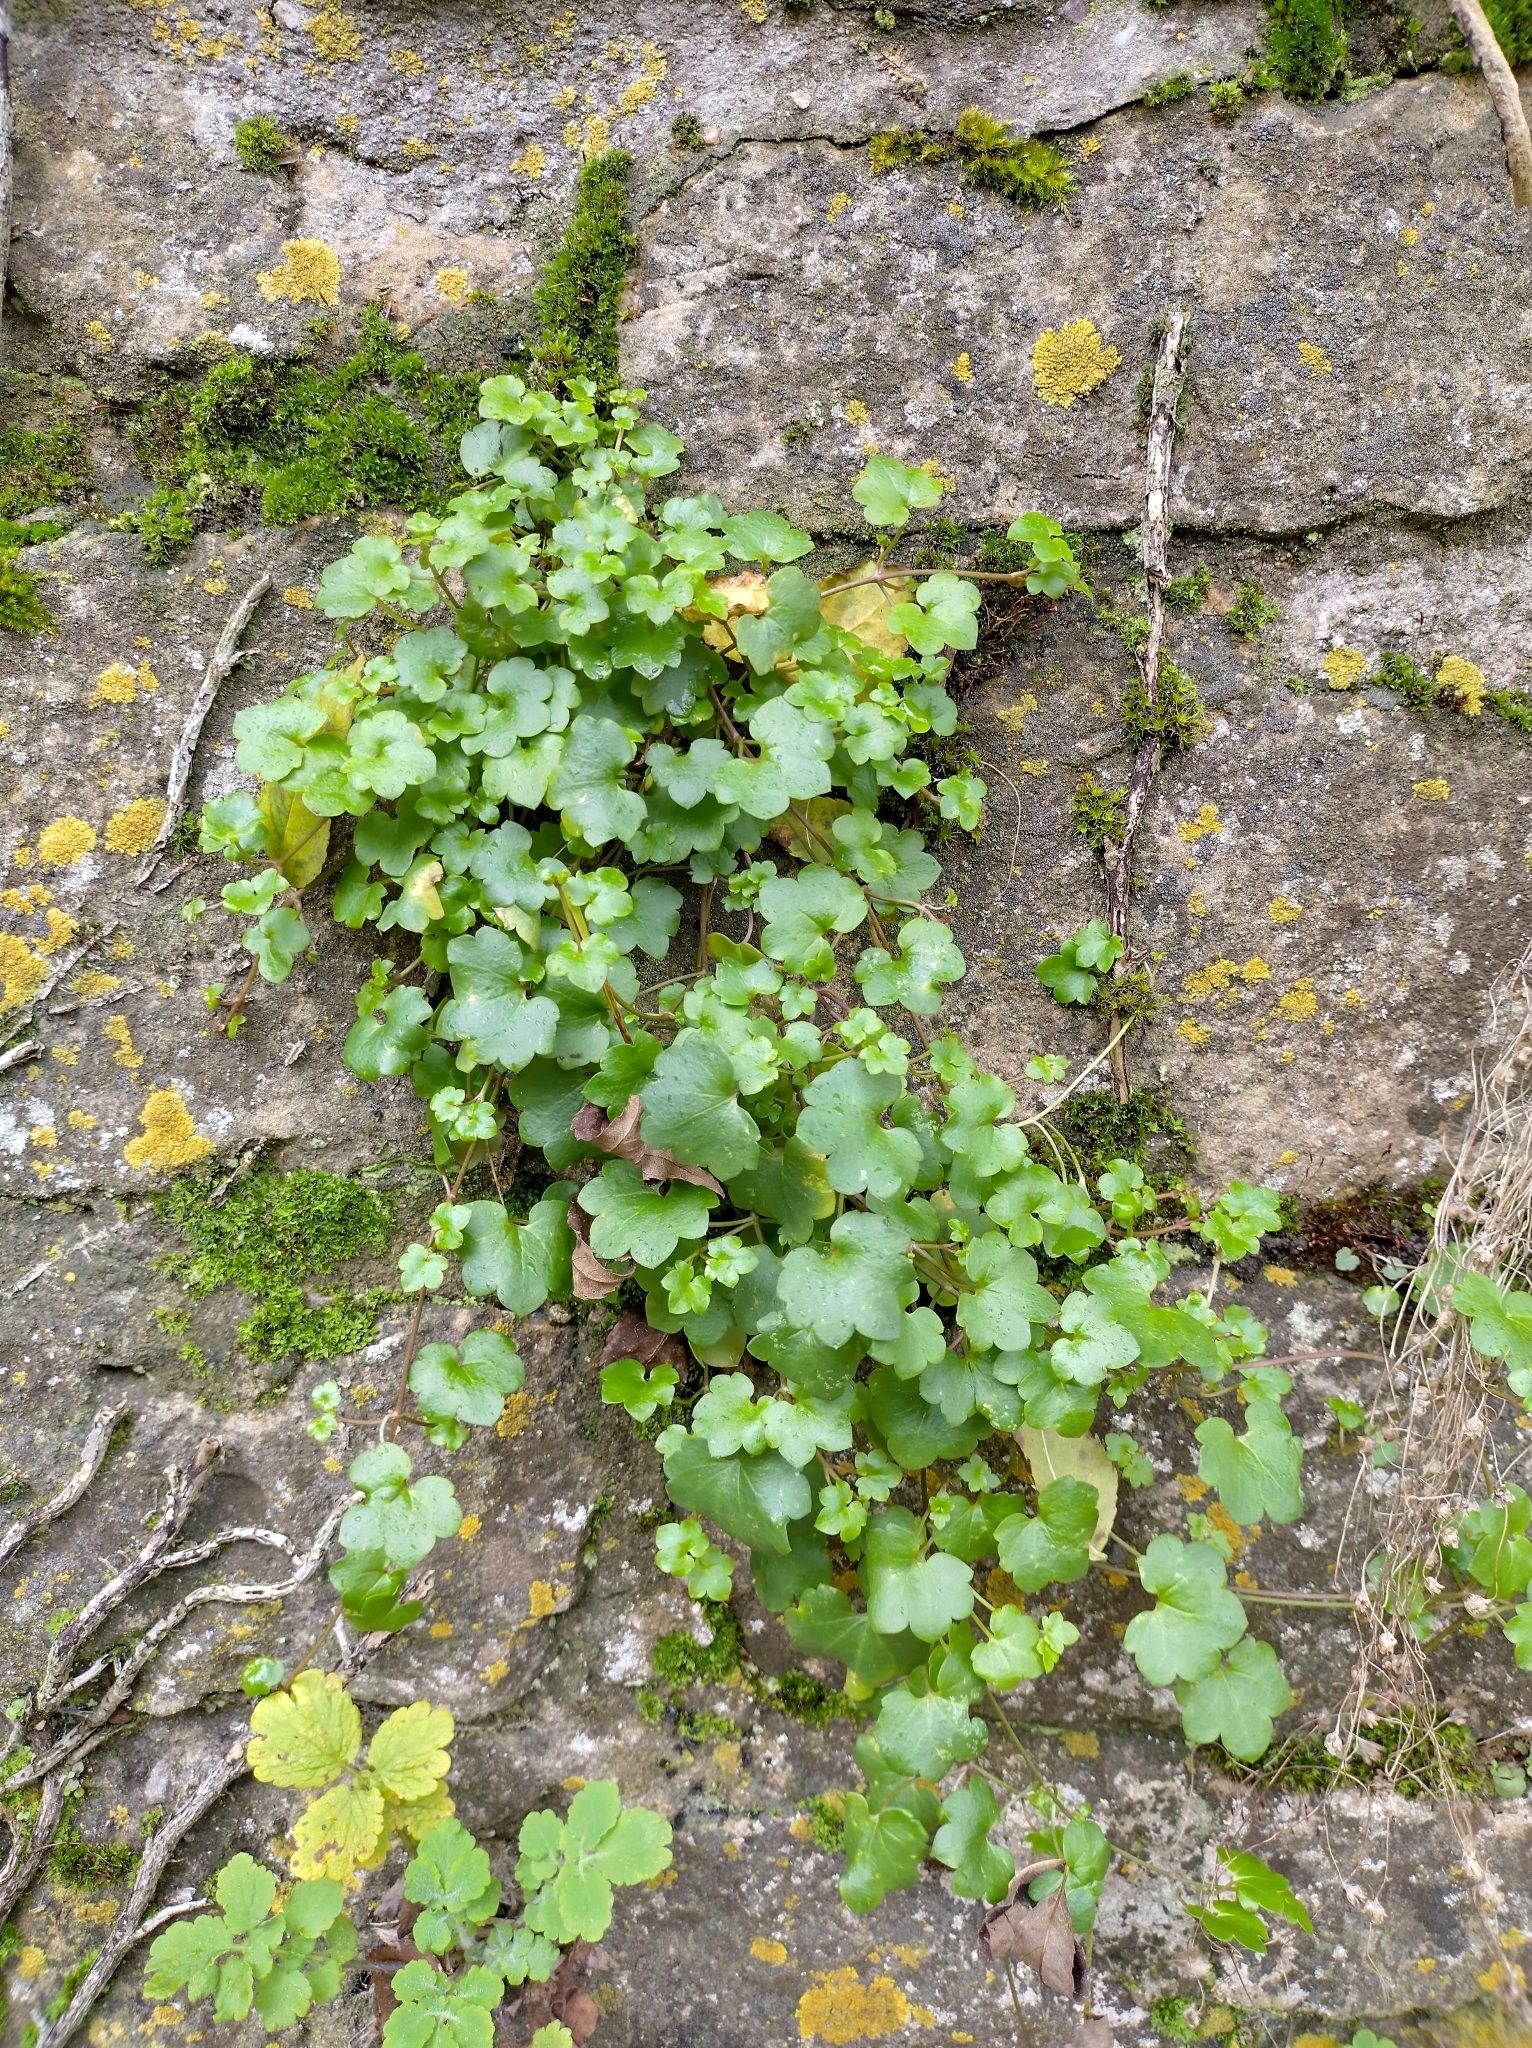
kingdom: Plantae
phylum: Tracheophyta
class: Magnoliopsida
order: Lamiales
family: Plantaginaceae
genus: Cymbalaria
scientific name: Cymbalaria muralis
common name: Ivy-leaved toadflax
